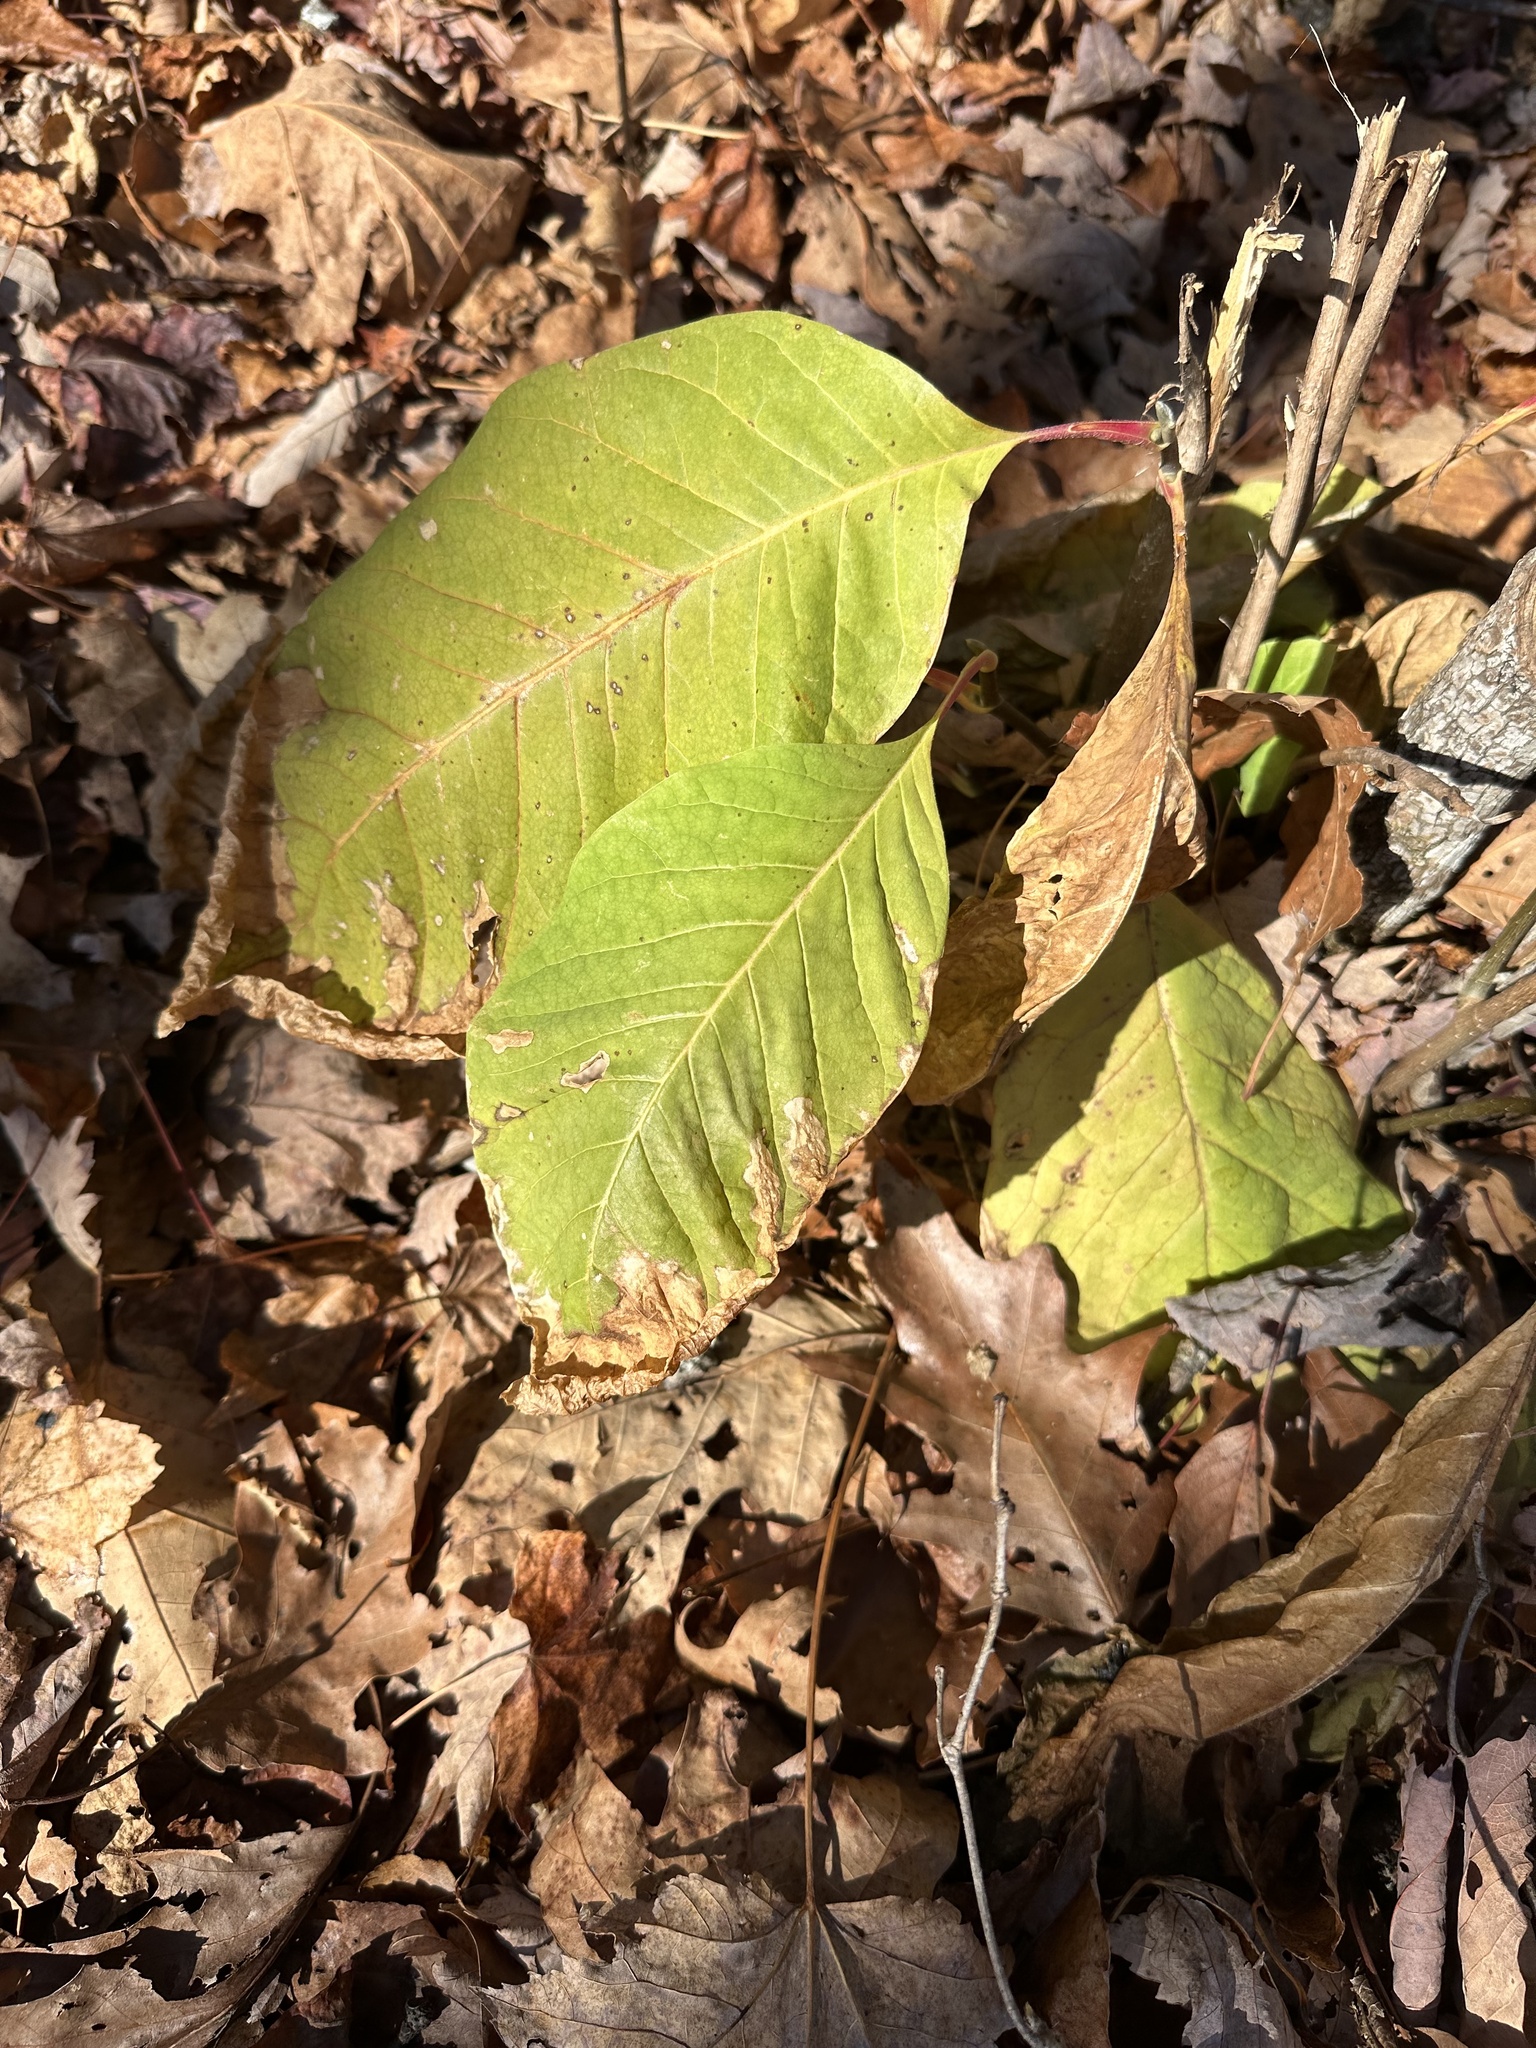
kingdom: Plantae
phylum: Tracheophyta
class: Magnoliopsida
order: Magnoliales
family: Magnoliaceae
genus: Magnolia
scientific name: Magnolia acuminata
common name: Cucumber magnolia
